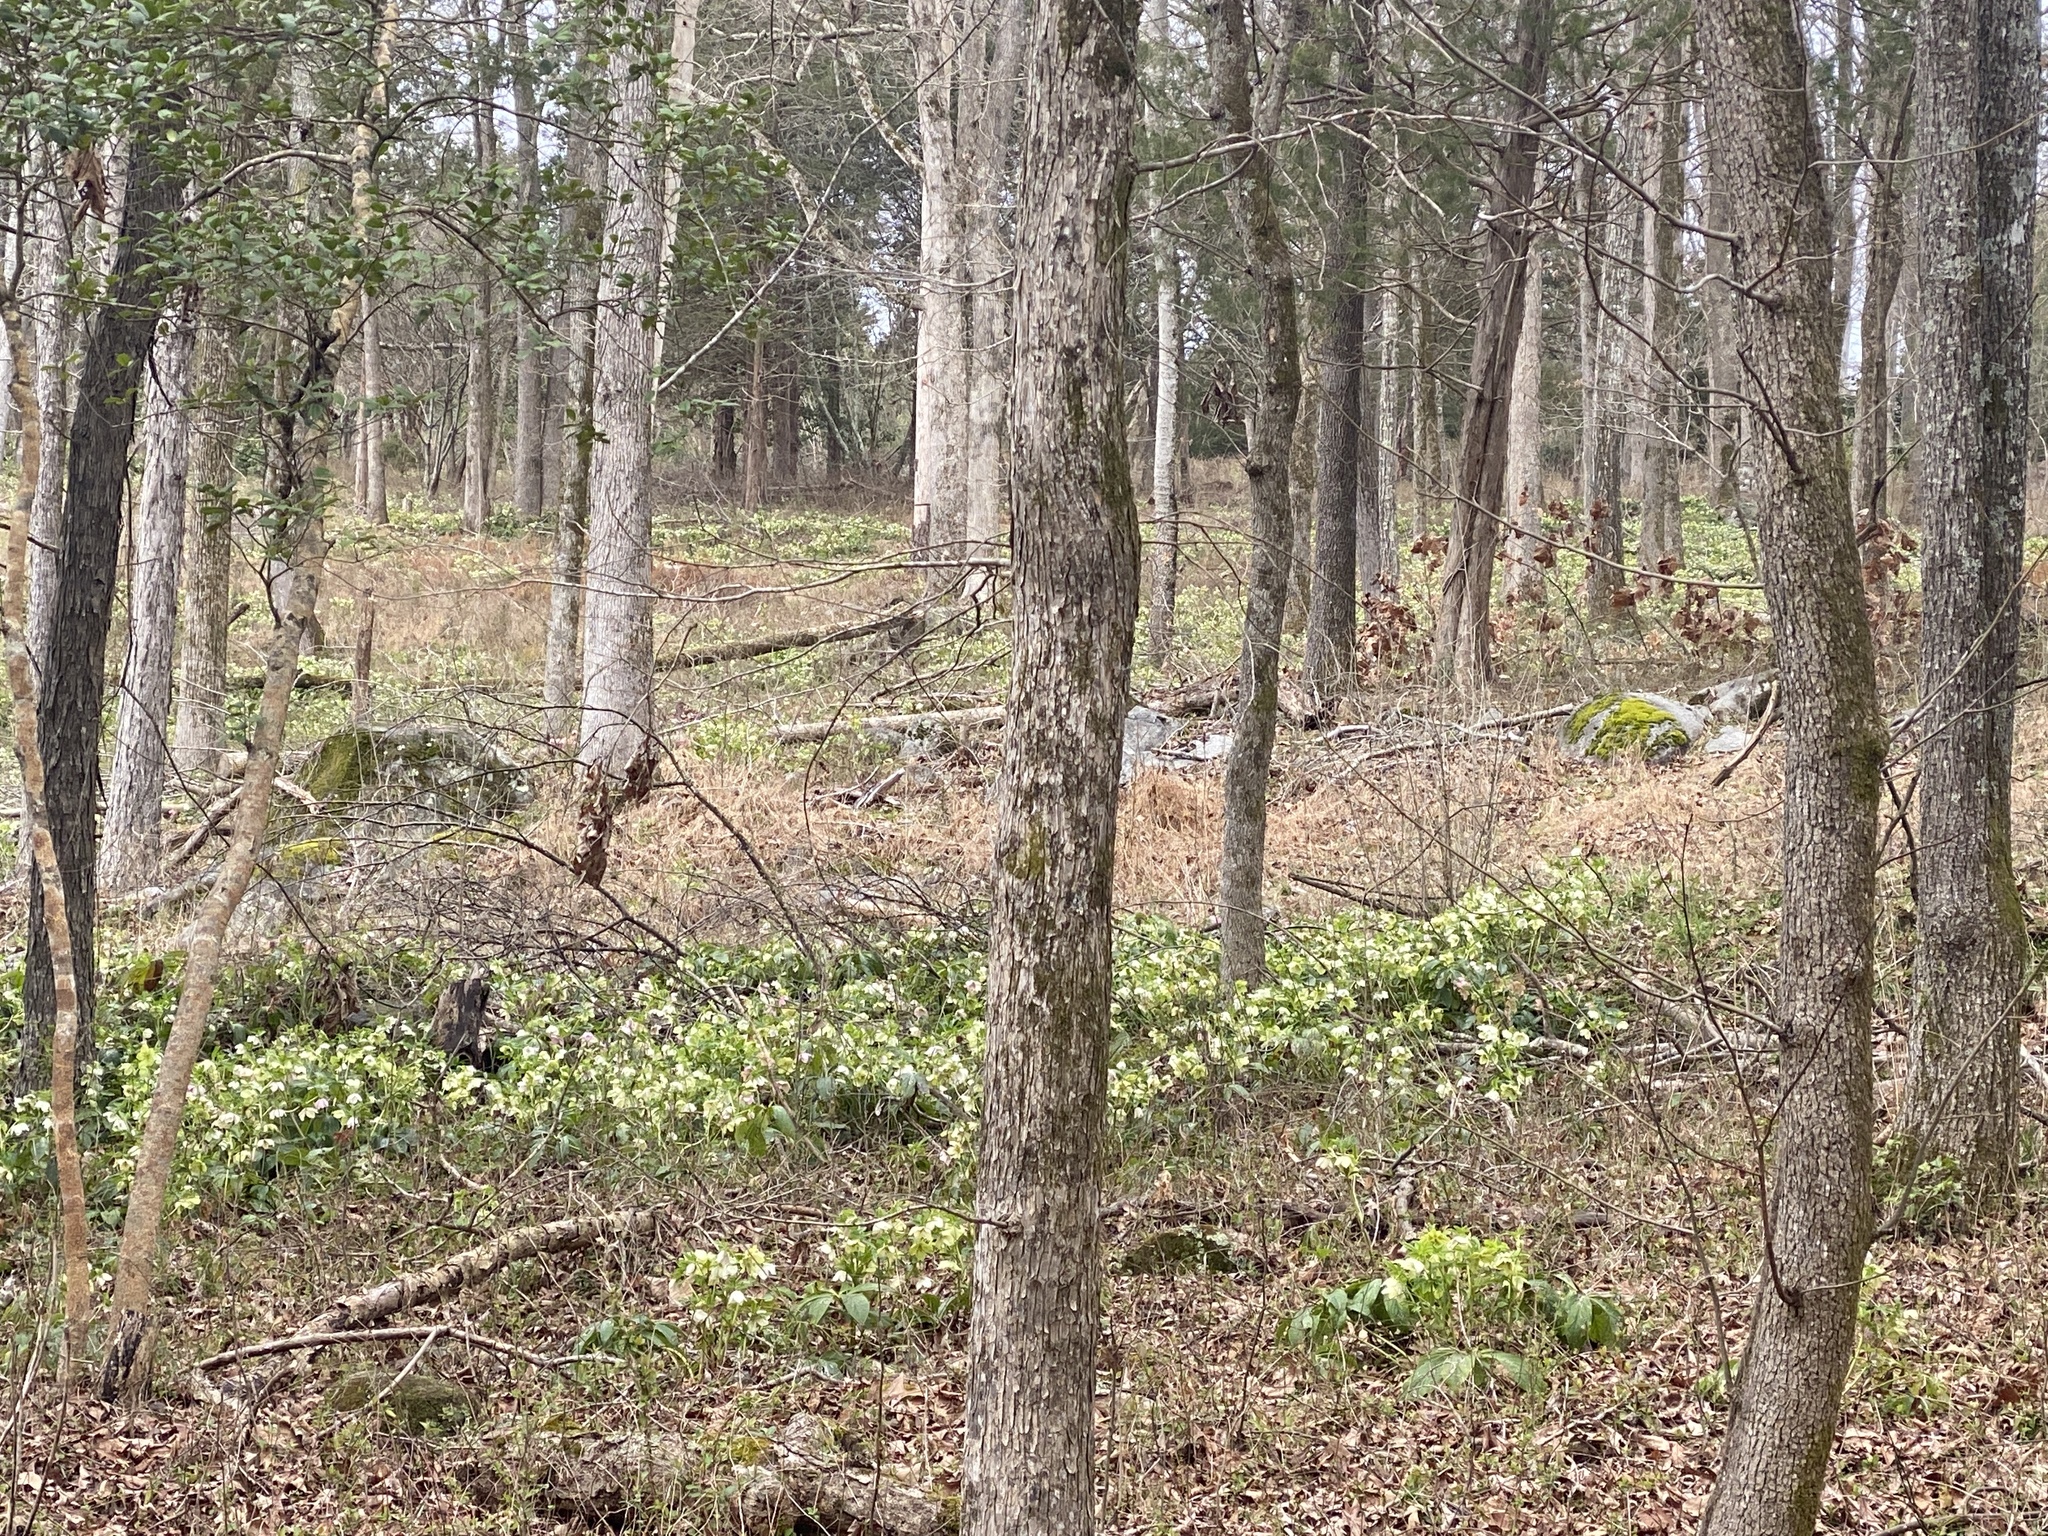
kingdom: Plantae
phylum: Tracheophyta
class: Magnoliopsida
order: Ranunculales
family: Ranunculaceae
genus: Helleborus
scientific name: Helleborus orientalis
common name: Lenten-rose
